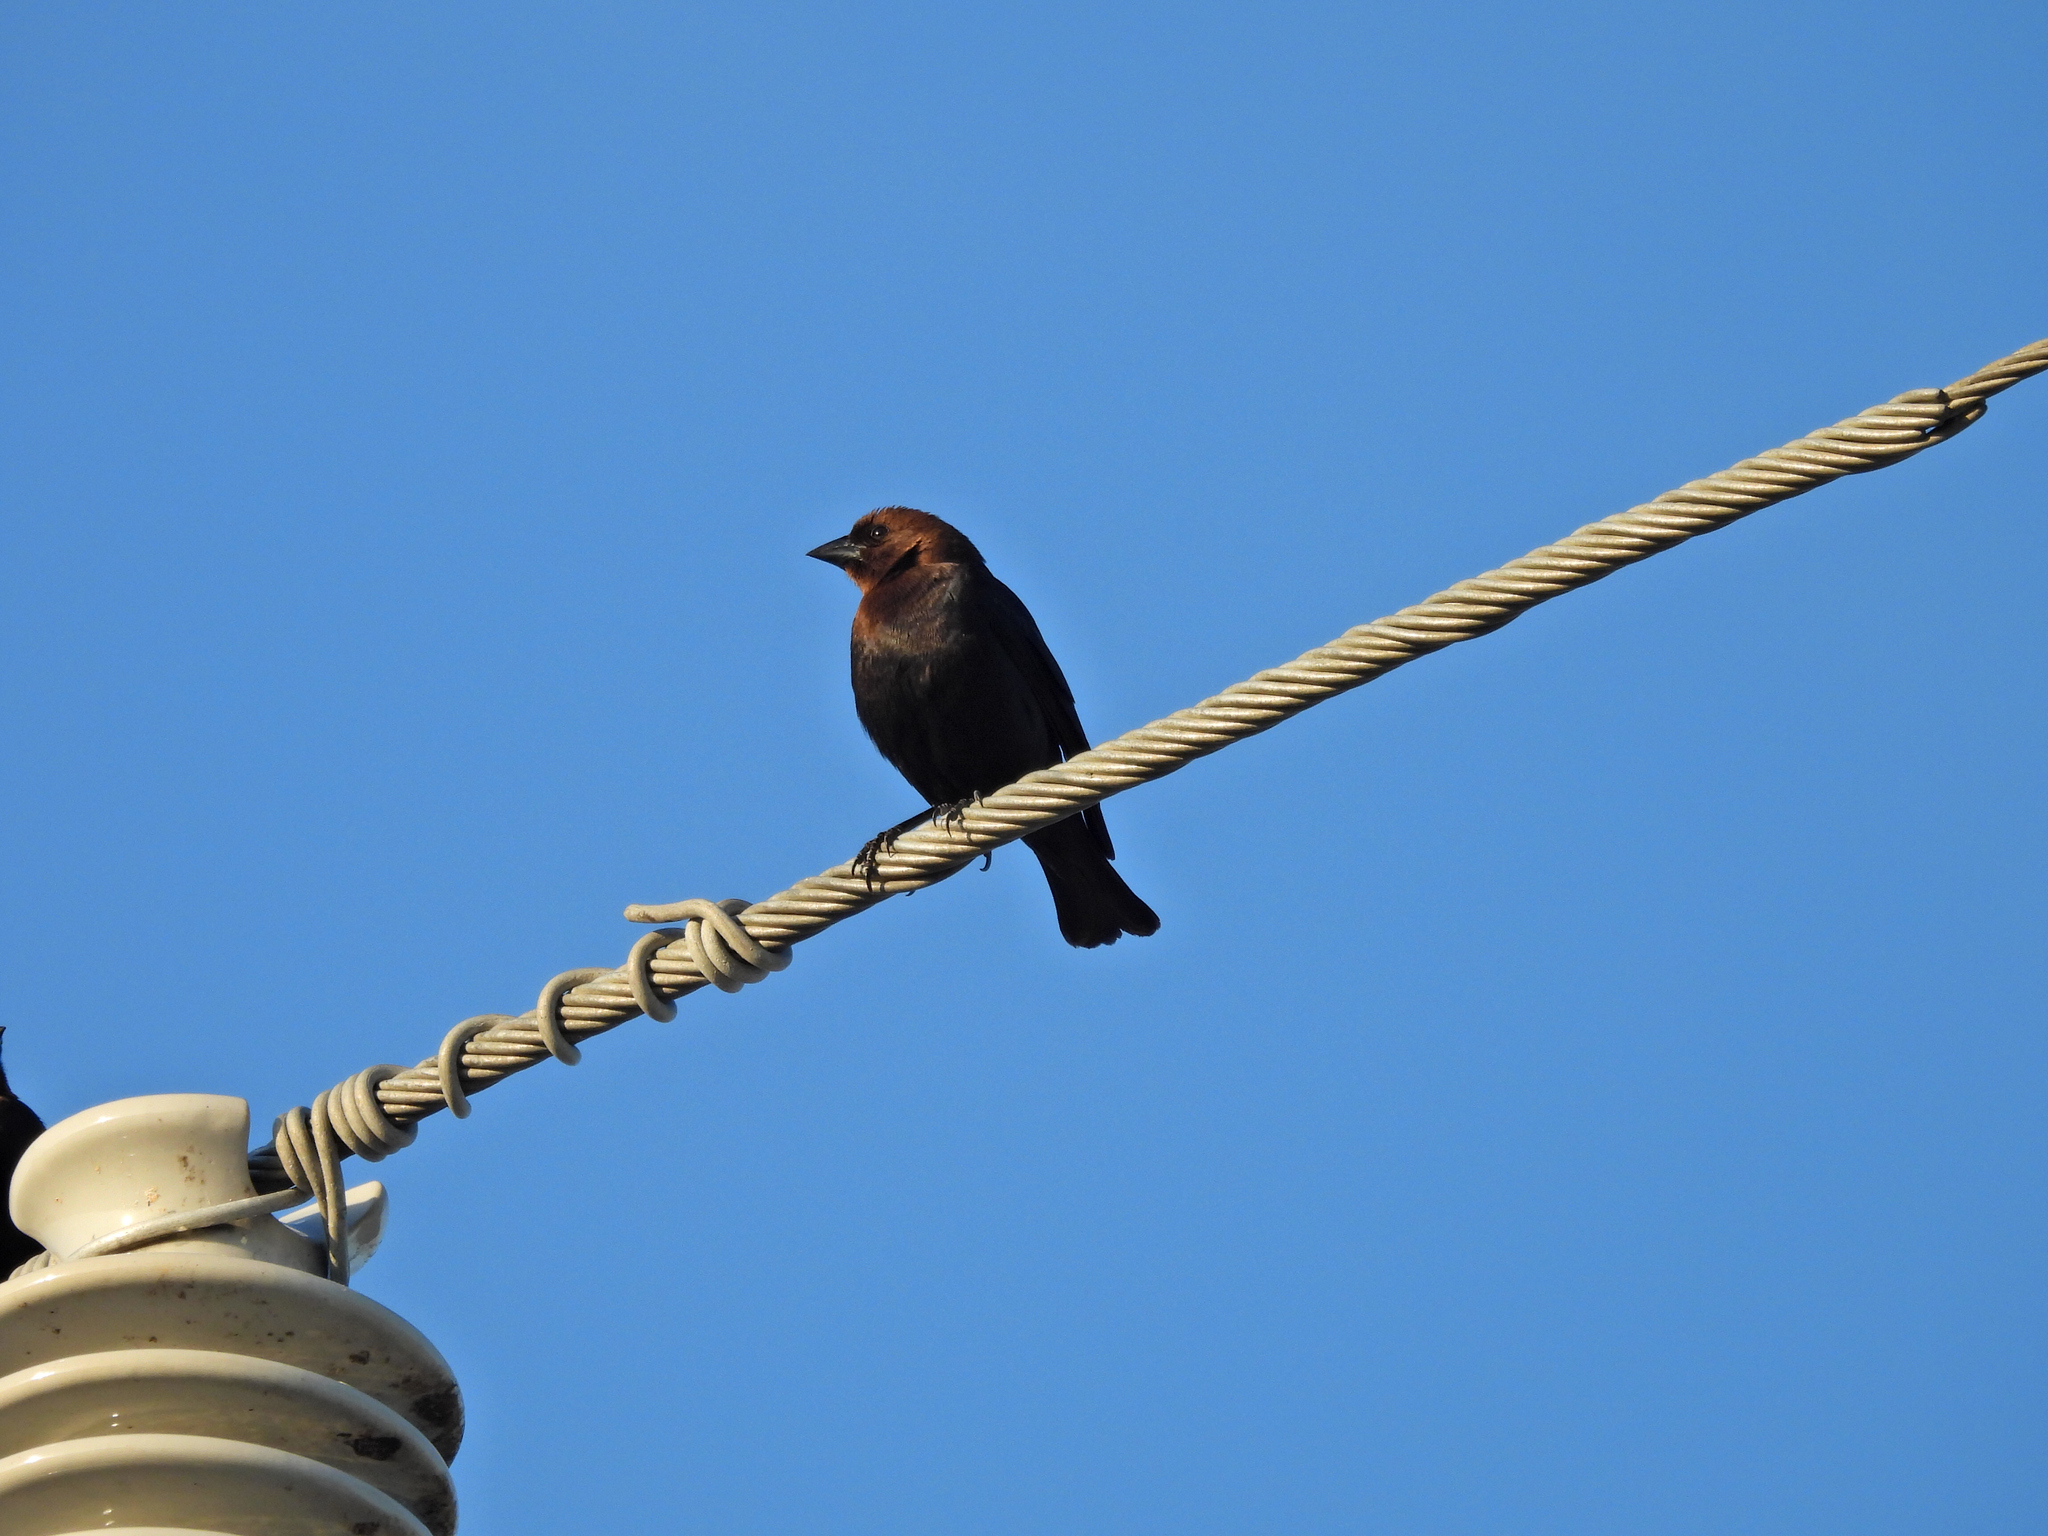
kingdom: Animalia
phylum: Chordata
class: Aves
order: Passeriformes
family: Icteridae
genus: Molothrus
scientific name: Molothrus ater
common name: Brown-headed cowbird
